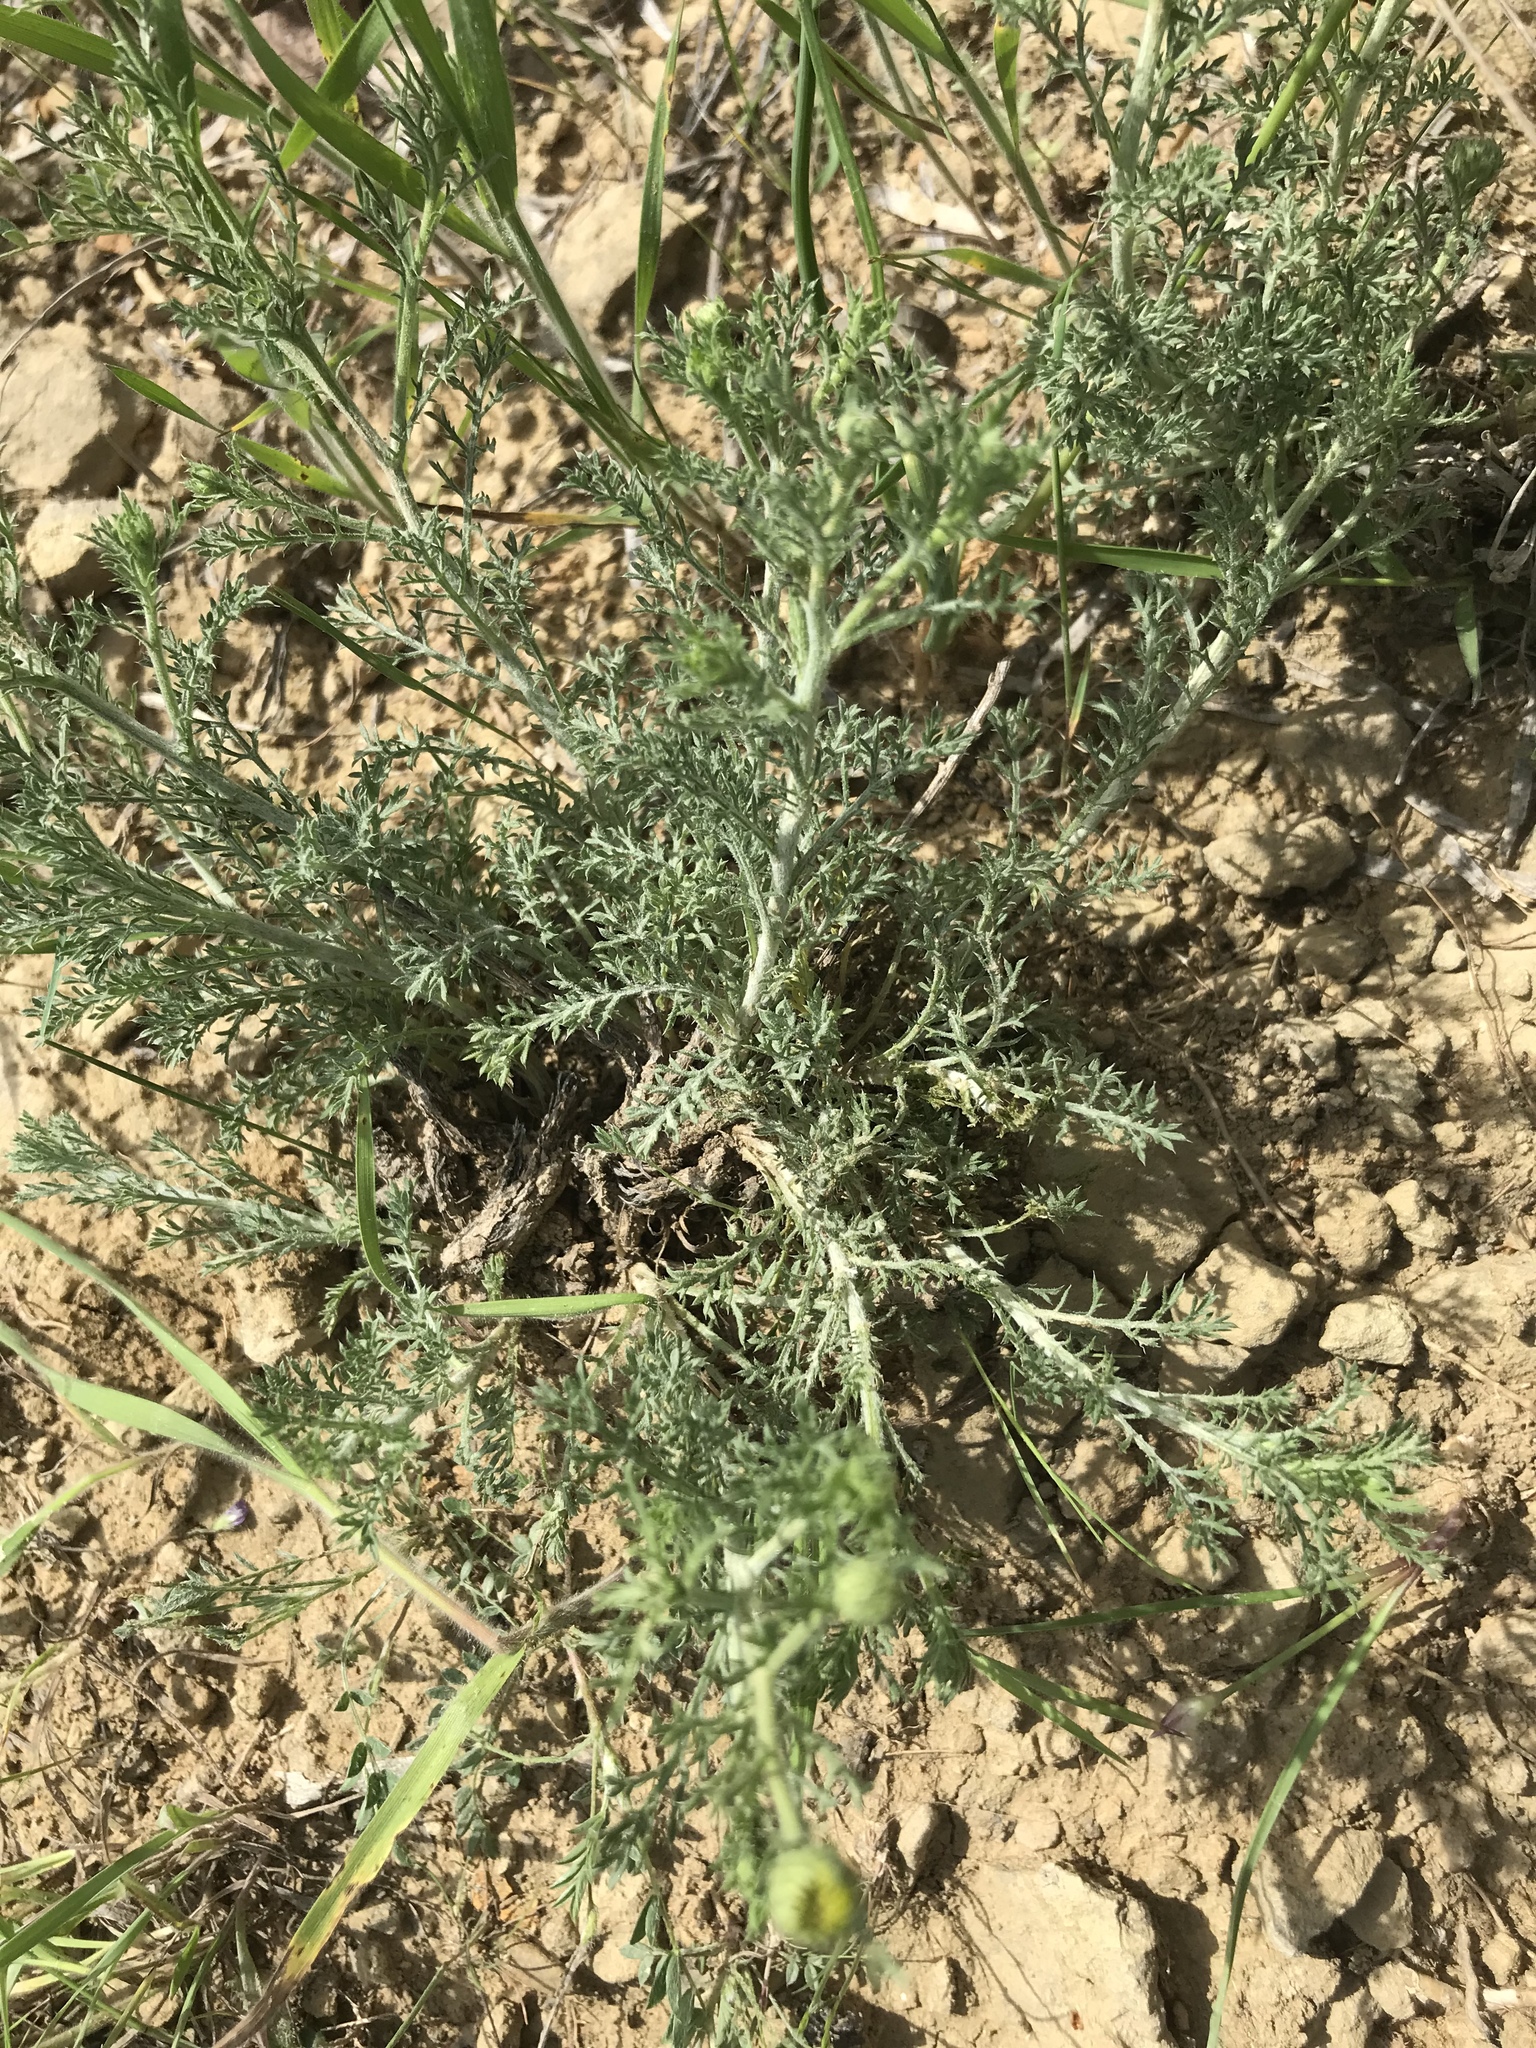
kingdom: Plantae
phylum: Tracheophyta
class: Magnoliopsida
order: Asterales
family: Asteraceae
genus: Xanthisma
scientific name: Xanthisma spinulosum
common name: Spiny goldenweed
